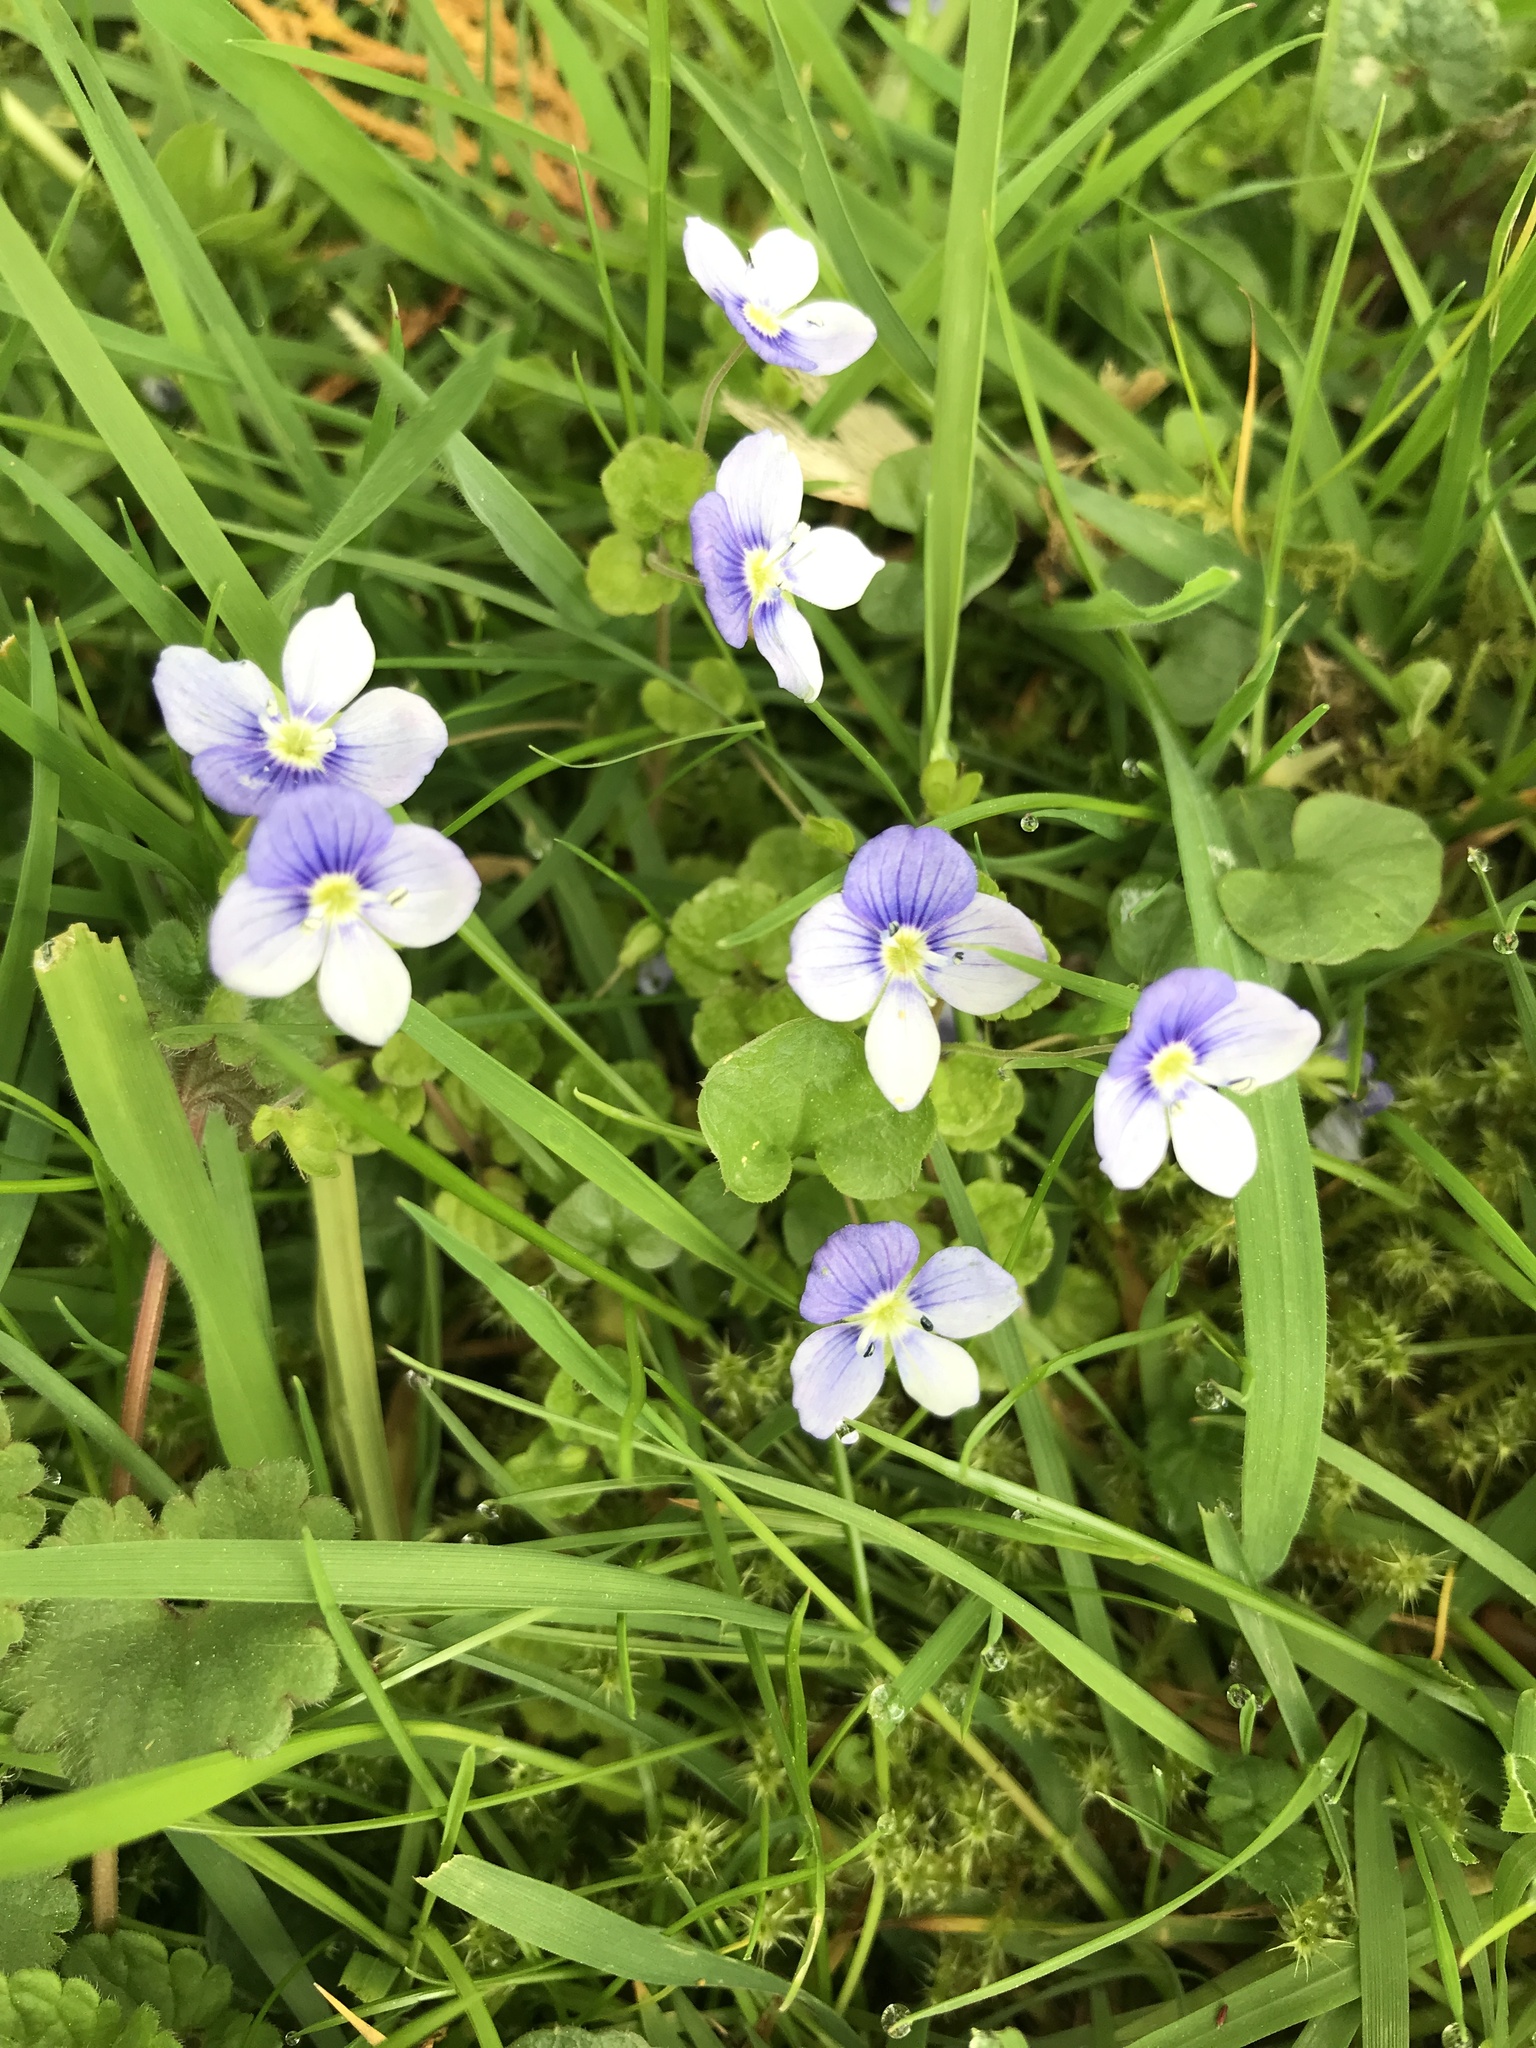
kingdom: Plantae
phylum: Tracheophyta
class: Magnoliopsida
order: Lamiales
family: Plantaginaceae
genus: Veronica
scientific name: Veronica filiformis
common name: Slender speedwell
